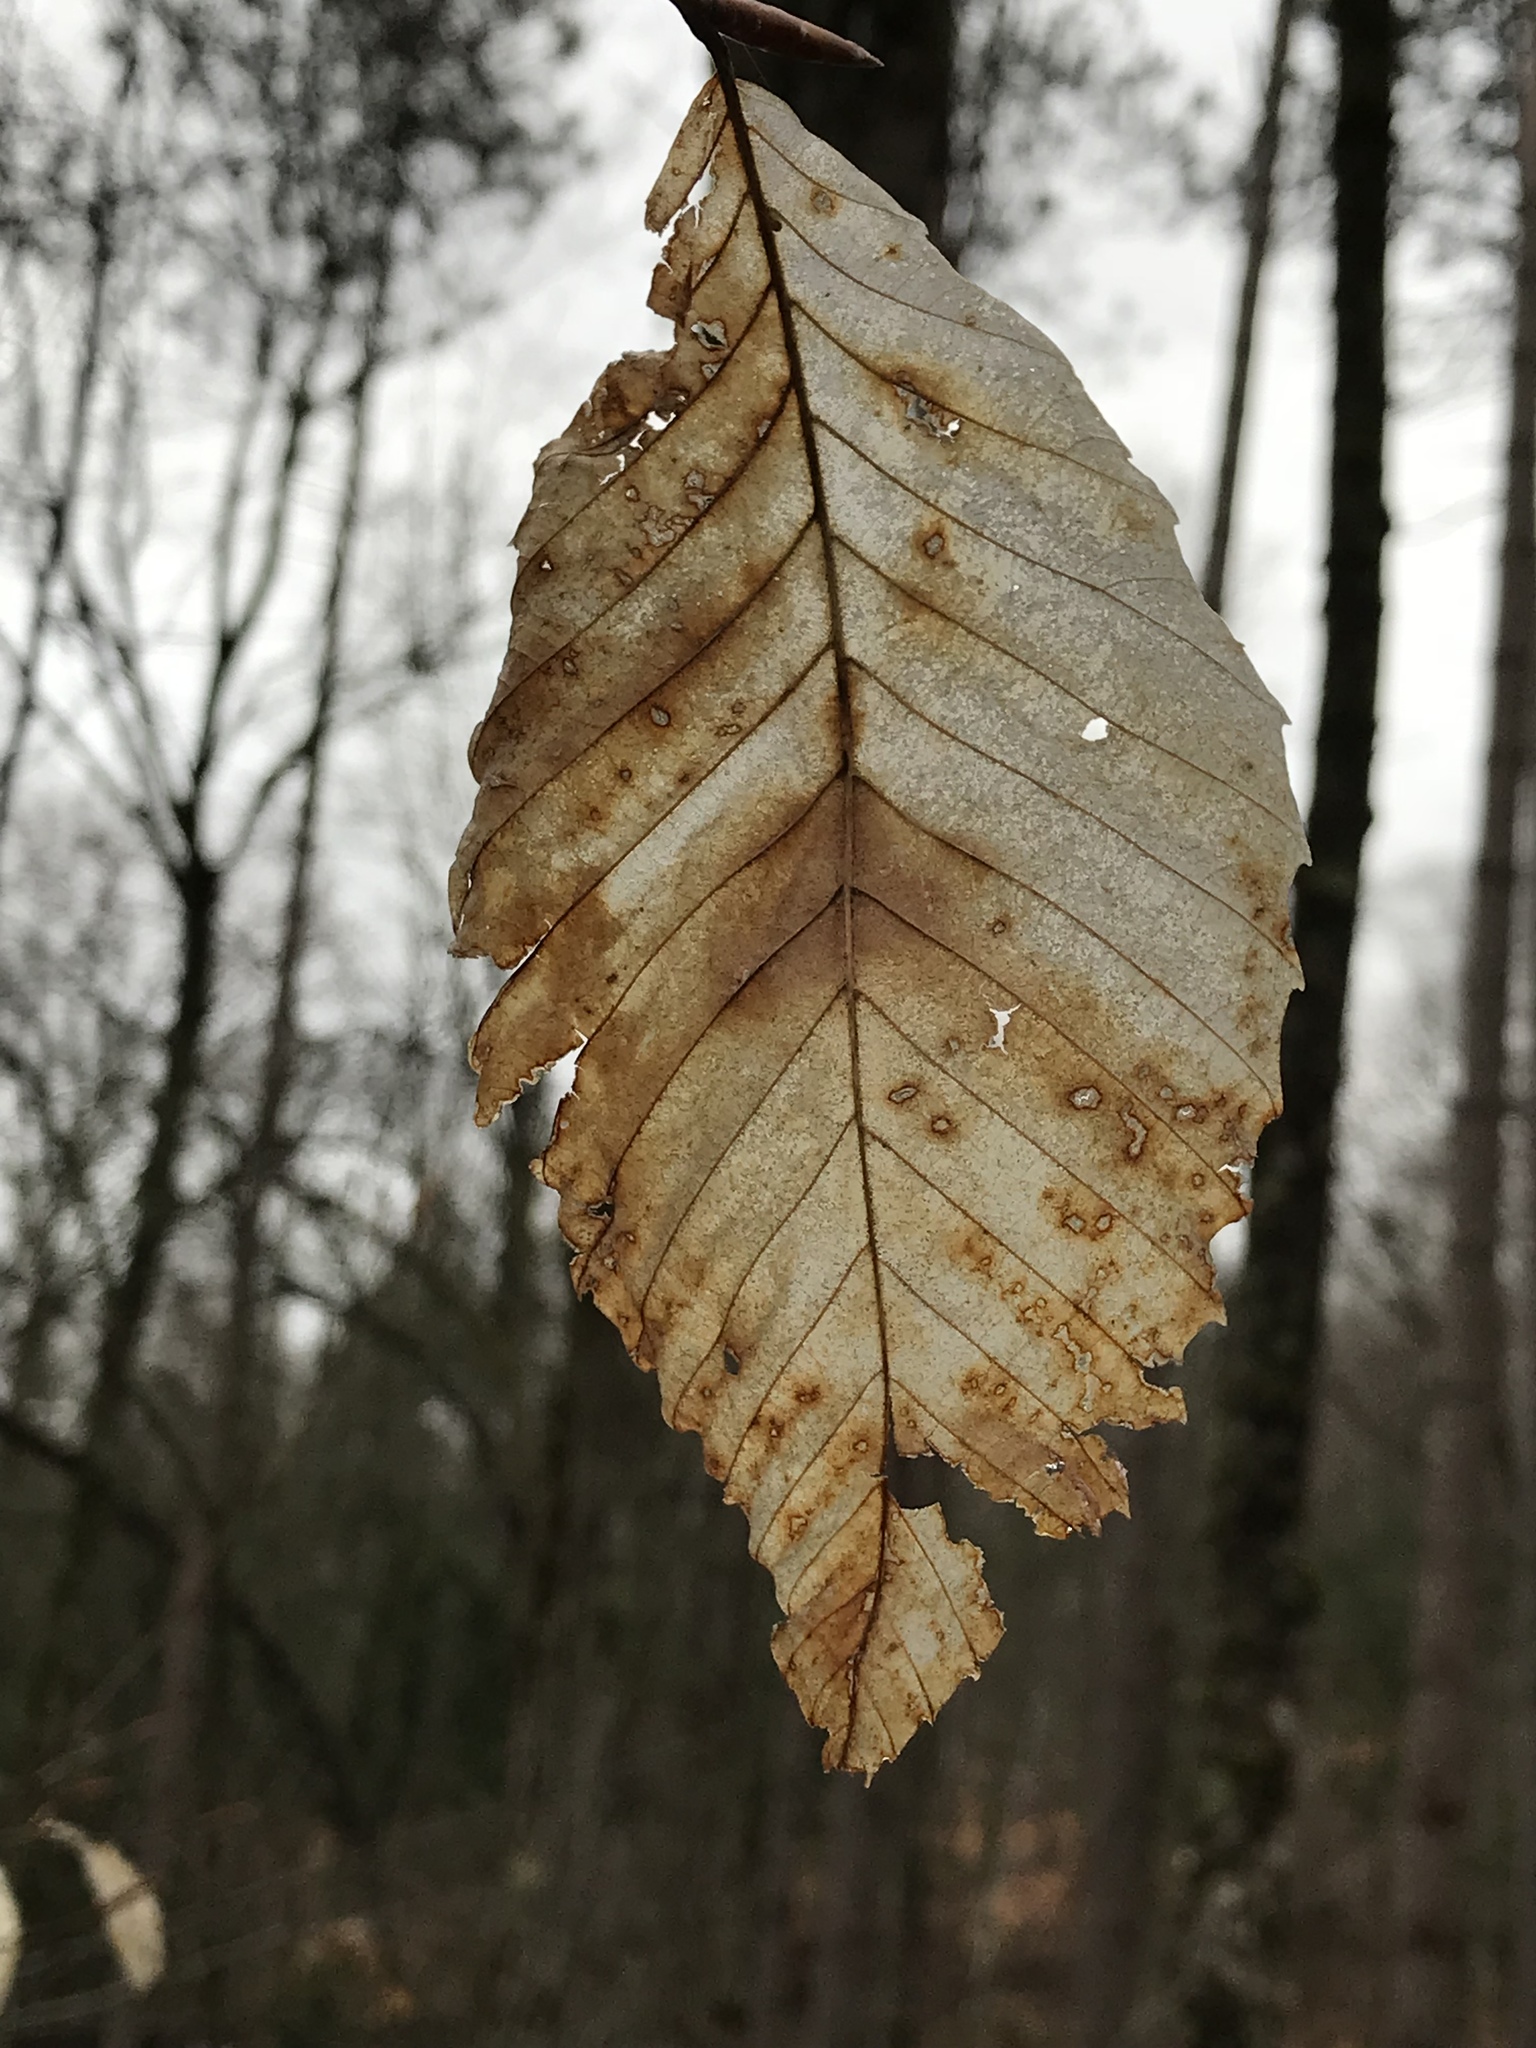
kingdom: Plantae
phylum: Tracheophyta
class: Magnoliopsida
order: Fagales
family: Fagaceae
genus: Fagus
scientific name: Fagus grandifolia
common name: American beech
